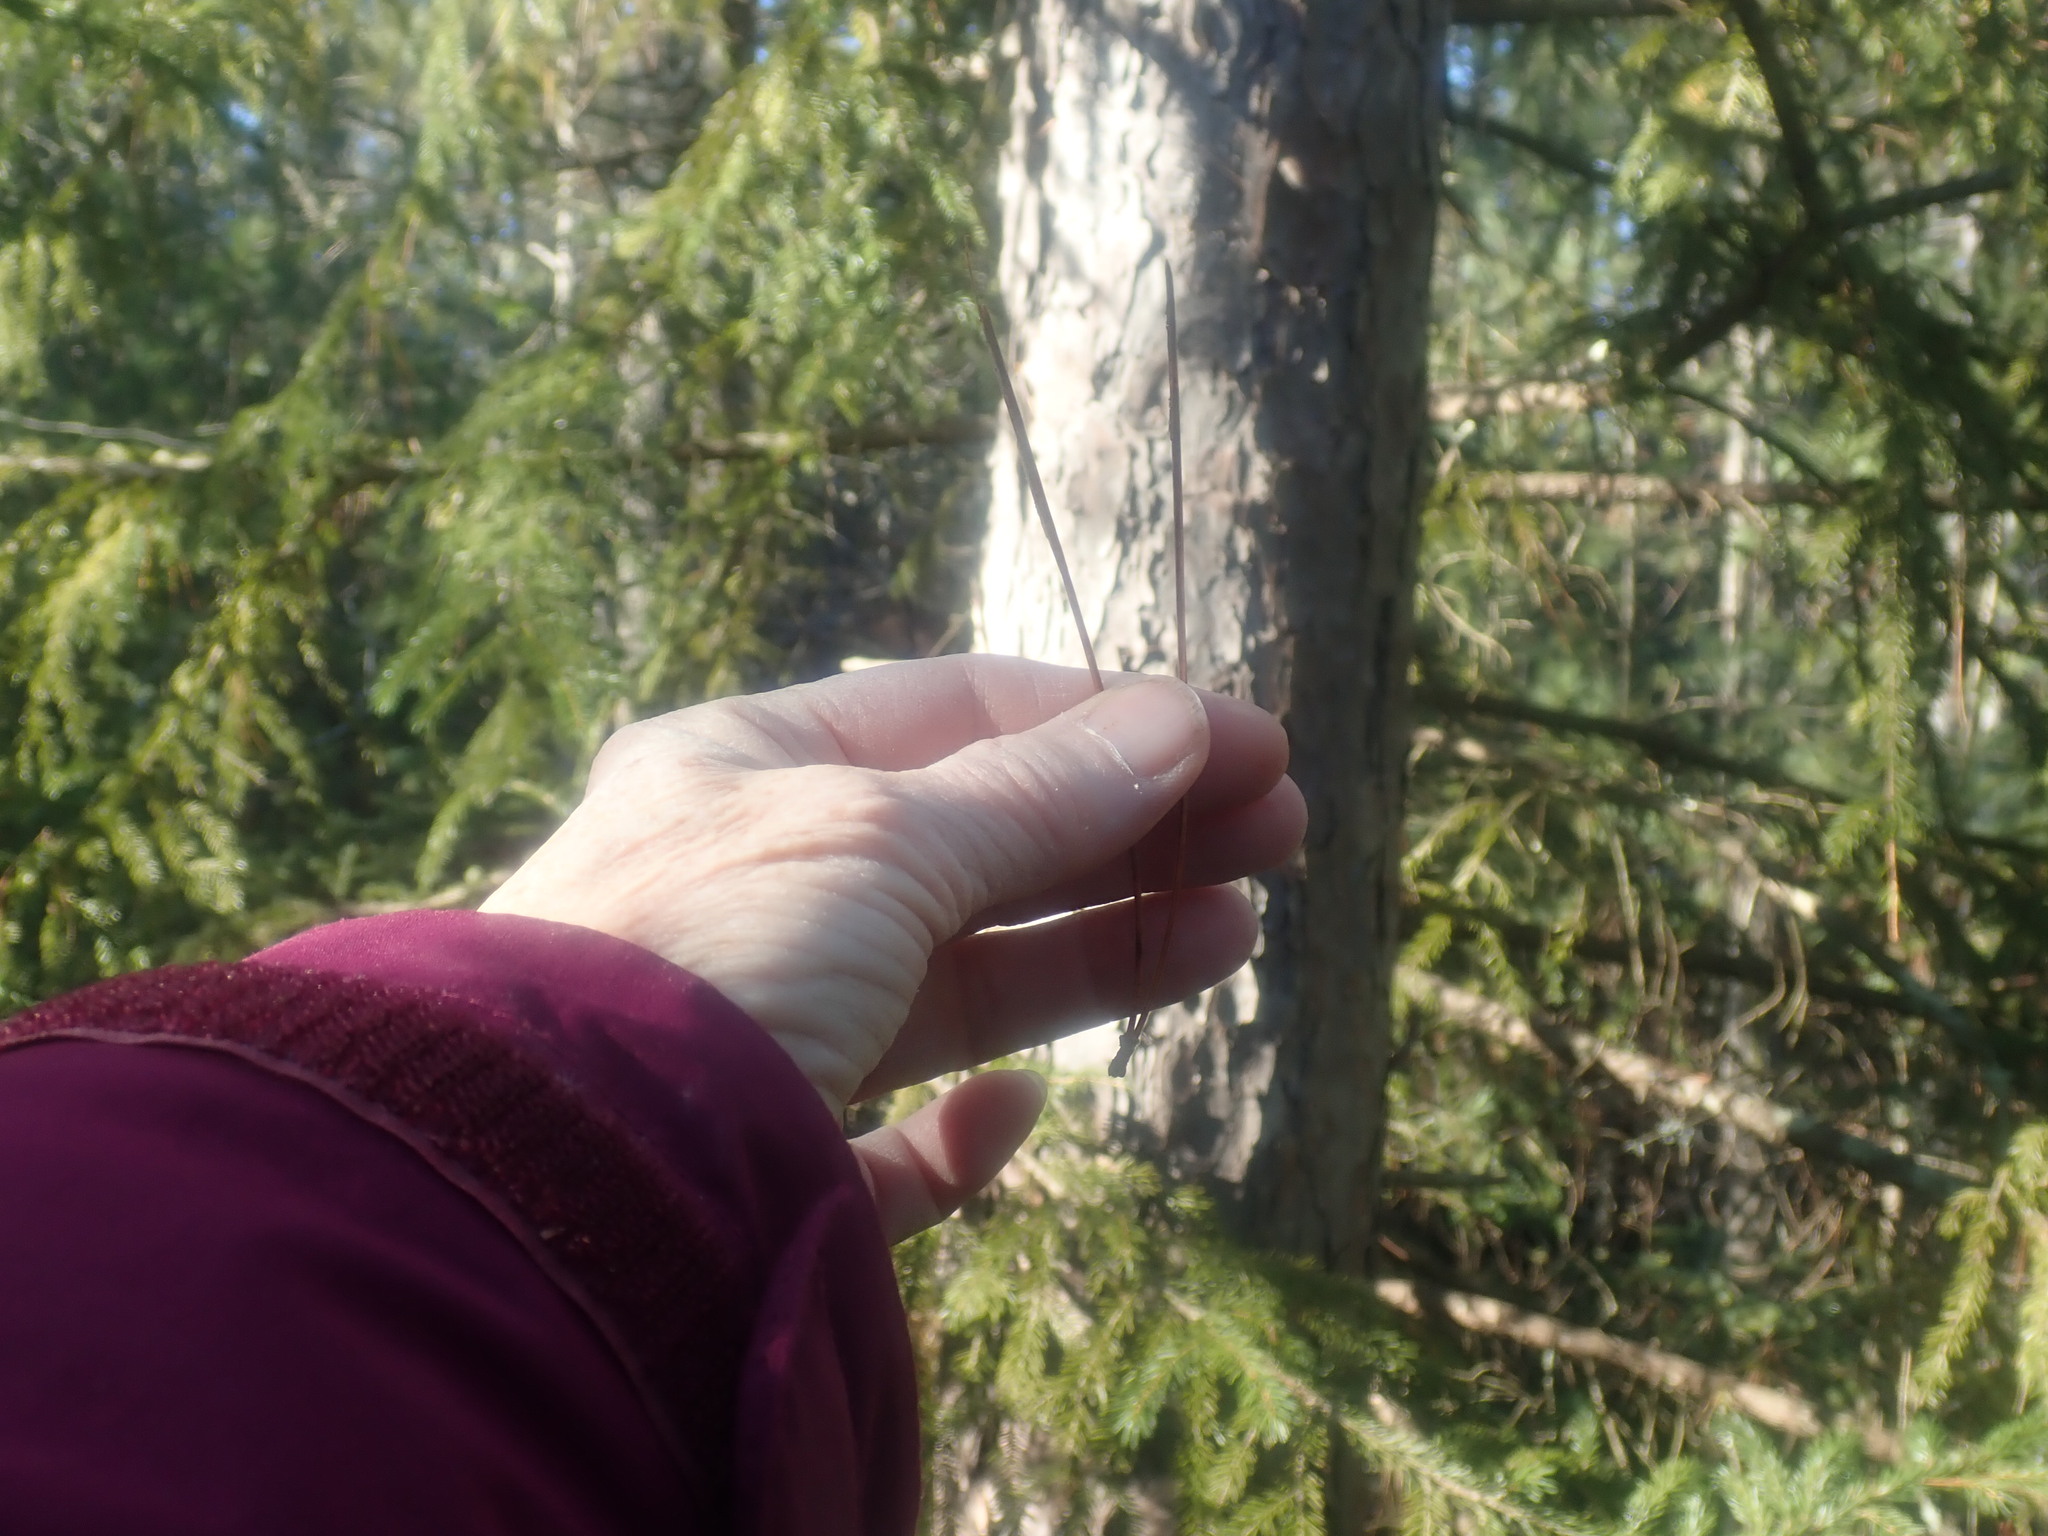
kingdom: Plantae
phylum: Tracheophyta
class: Pinopsida
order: Pinales
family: Pinaceae
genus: Pinus
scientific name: Pinus resinosa
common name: Norway pine
